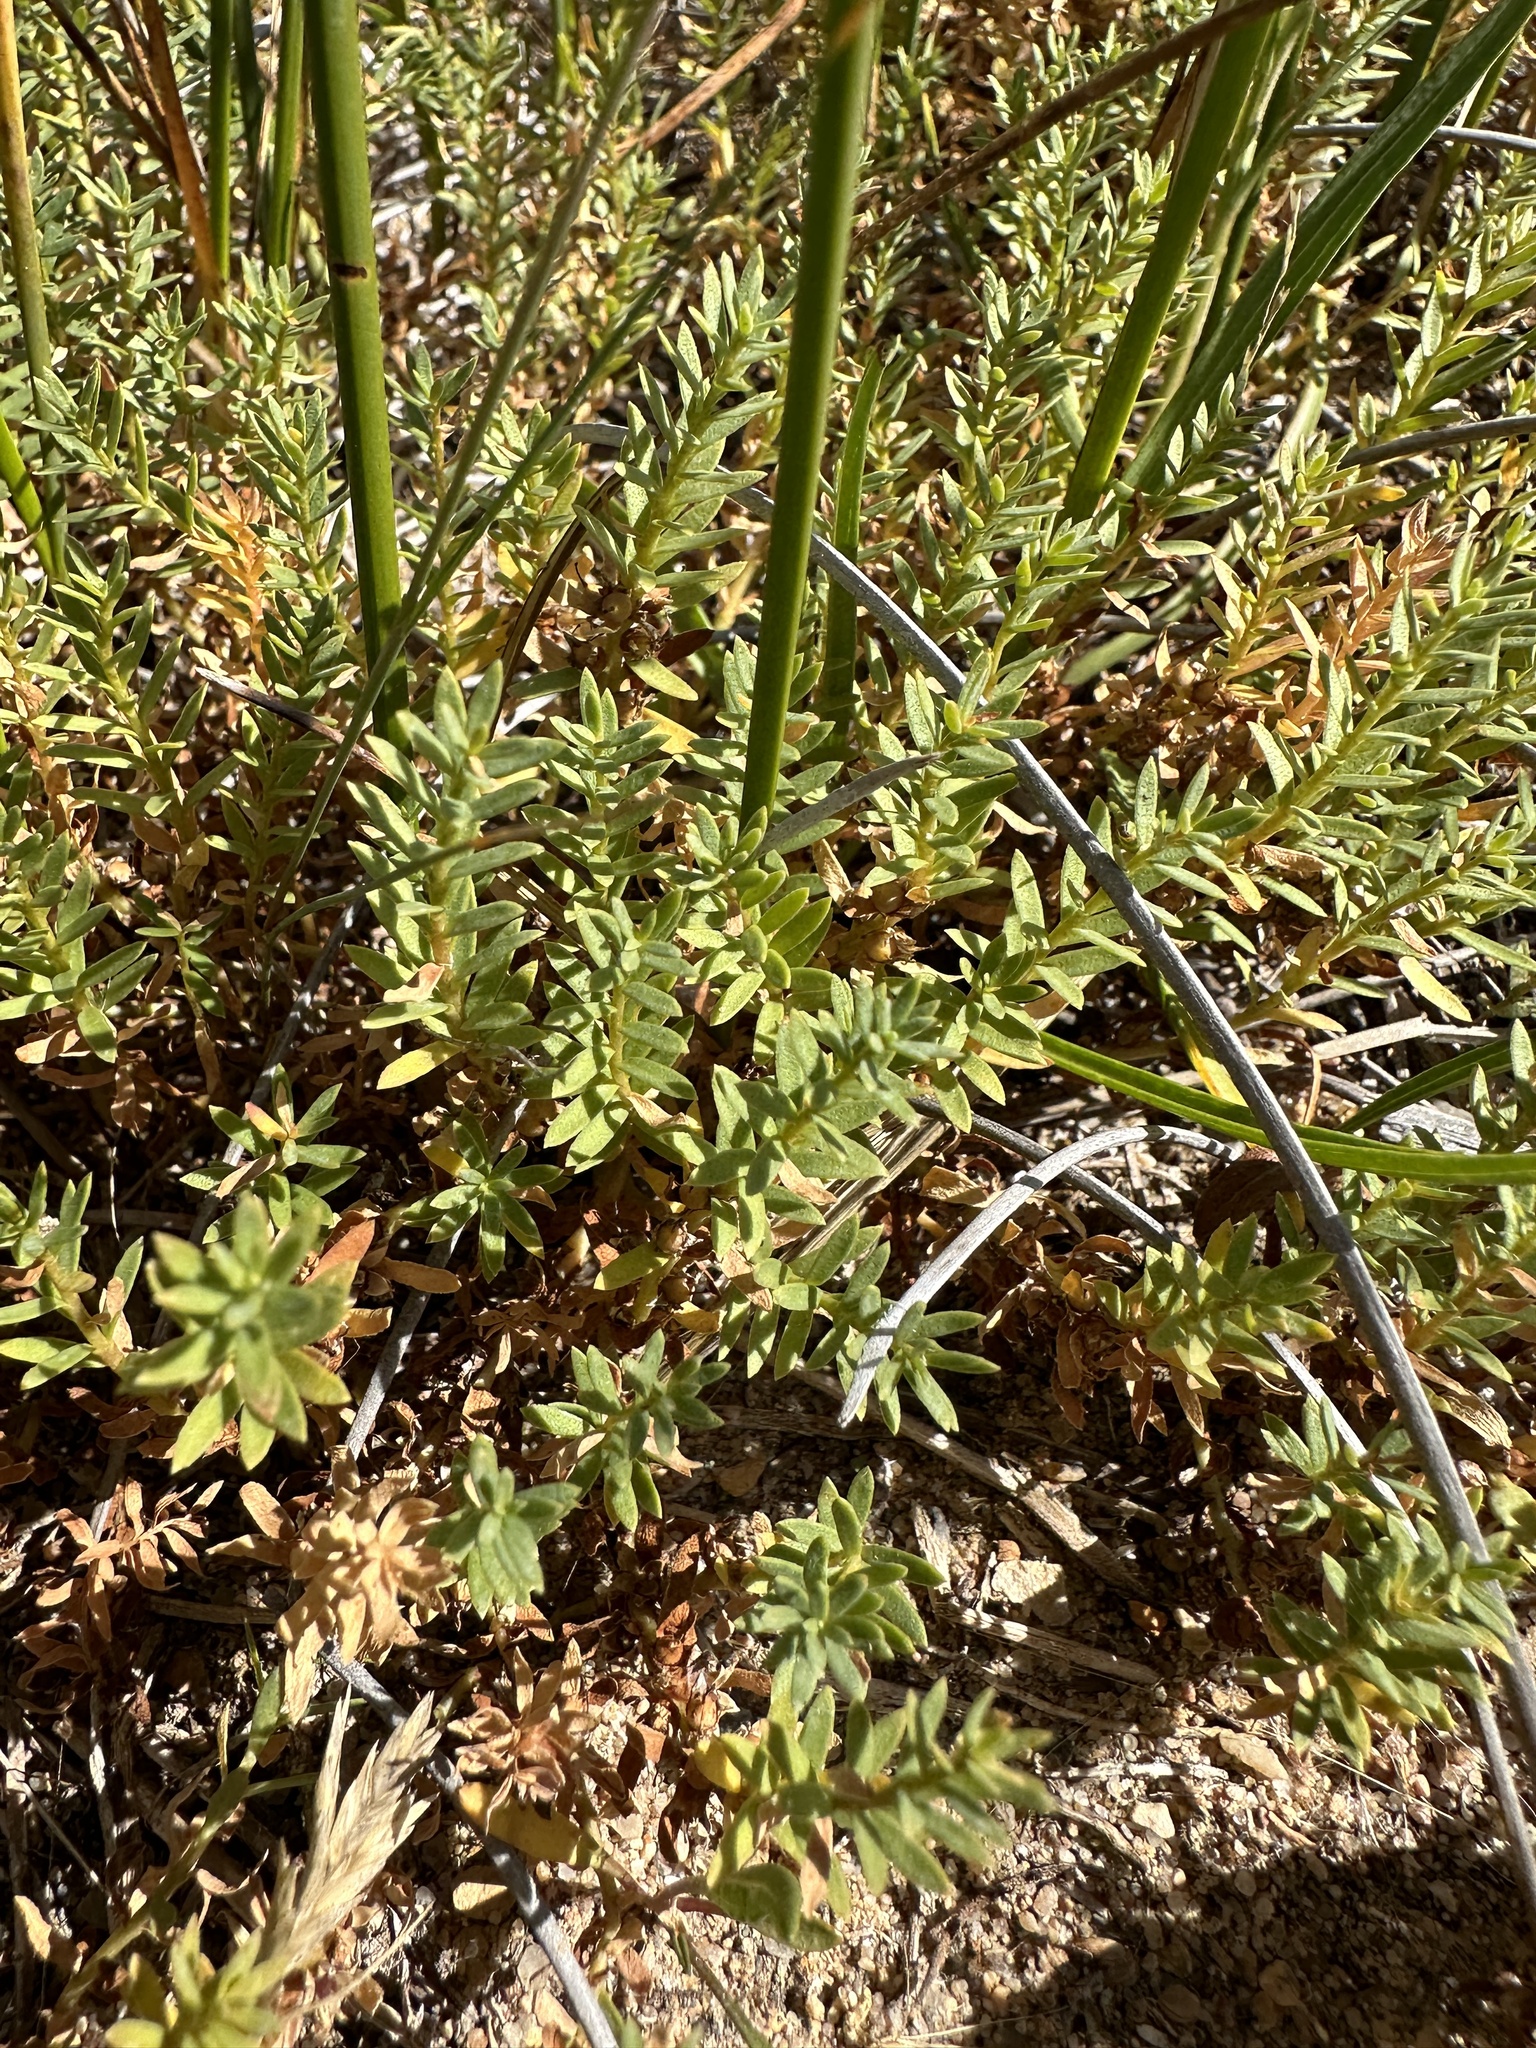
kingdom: Plantae
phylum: Tracheophyta
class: Magnoliopsida
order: Ericales
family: Primulaceae
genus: Lysimachia
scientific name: Lysimachia maritima
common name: Sea milkwort
